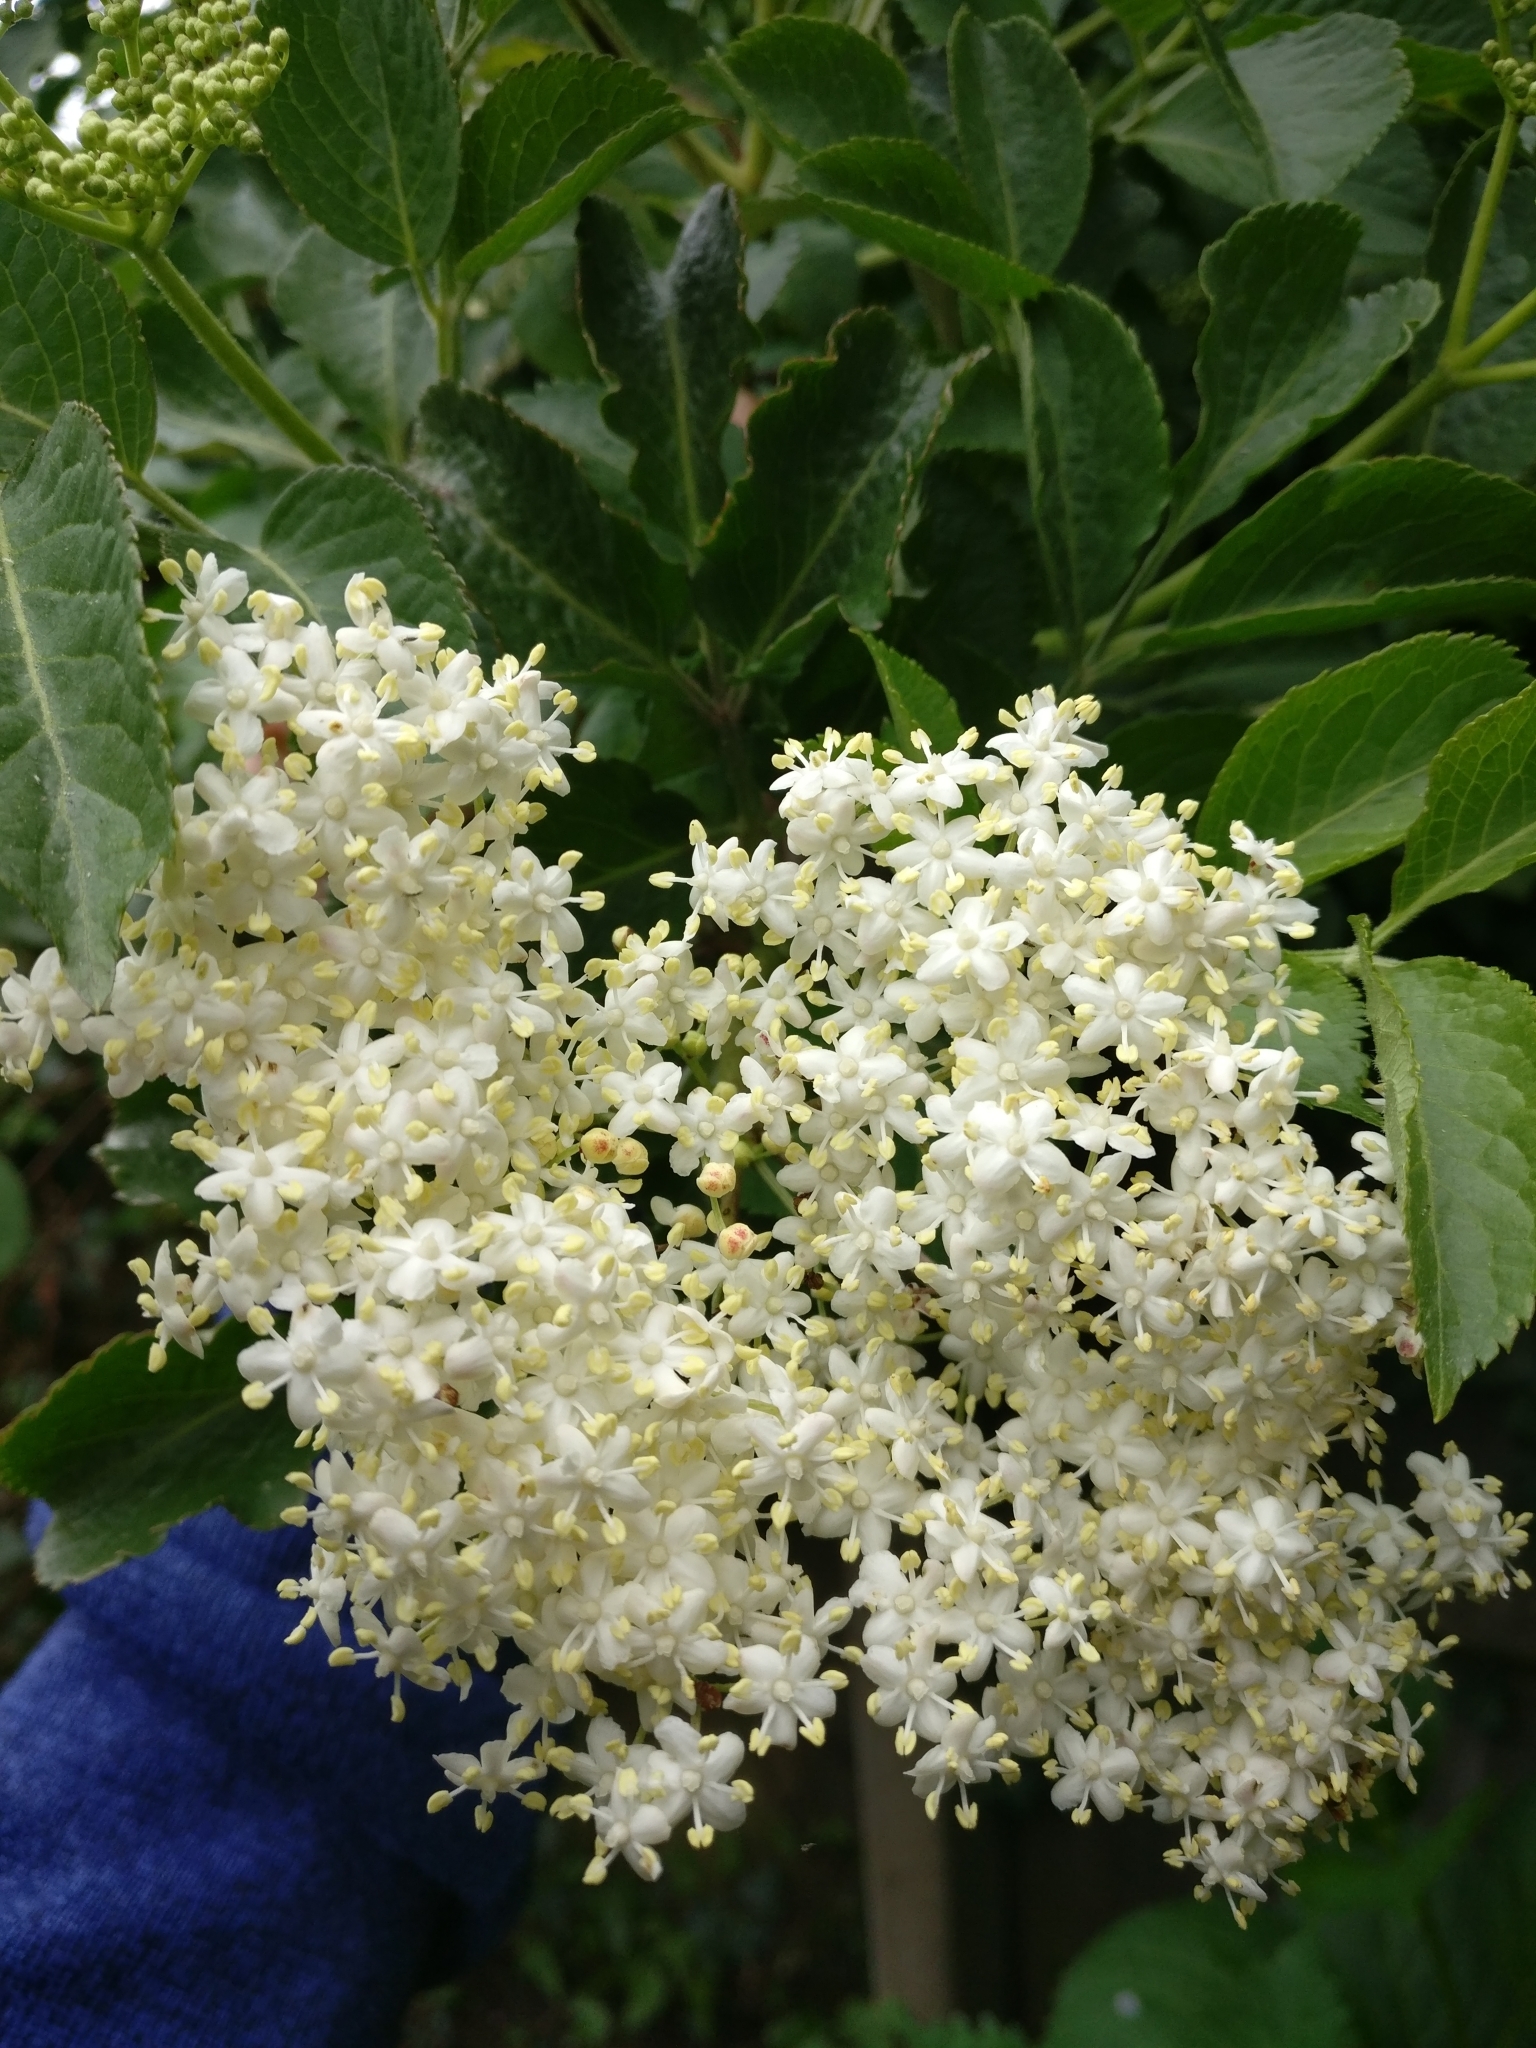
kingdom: Plantae
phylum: Tracheophyta
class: Magnoliopsida
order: Dipsacales
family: Viburnaceae
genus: Sambucus
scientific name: Sambucus nigra
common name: Elder
